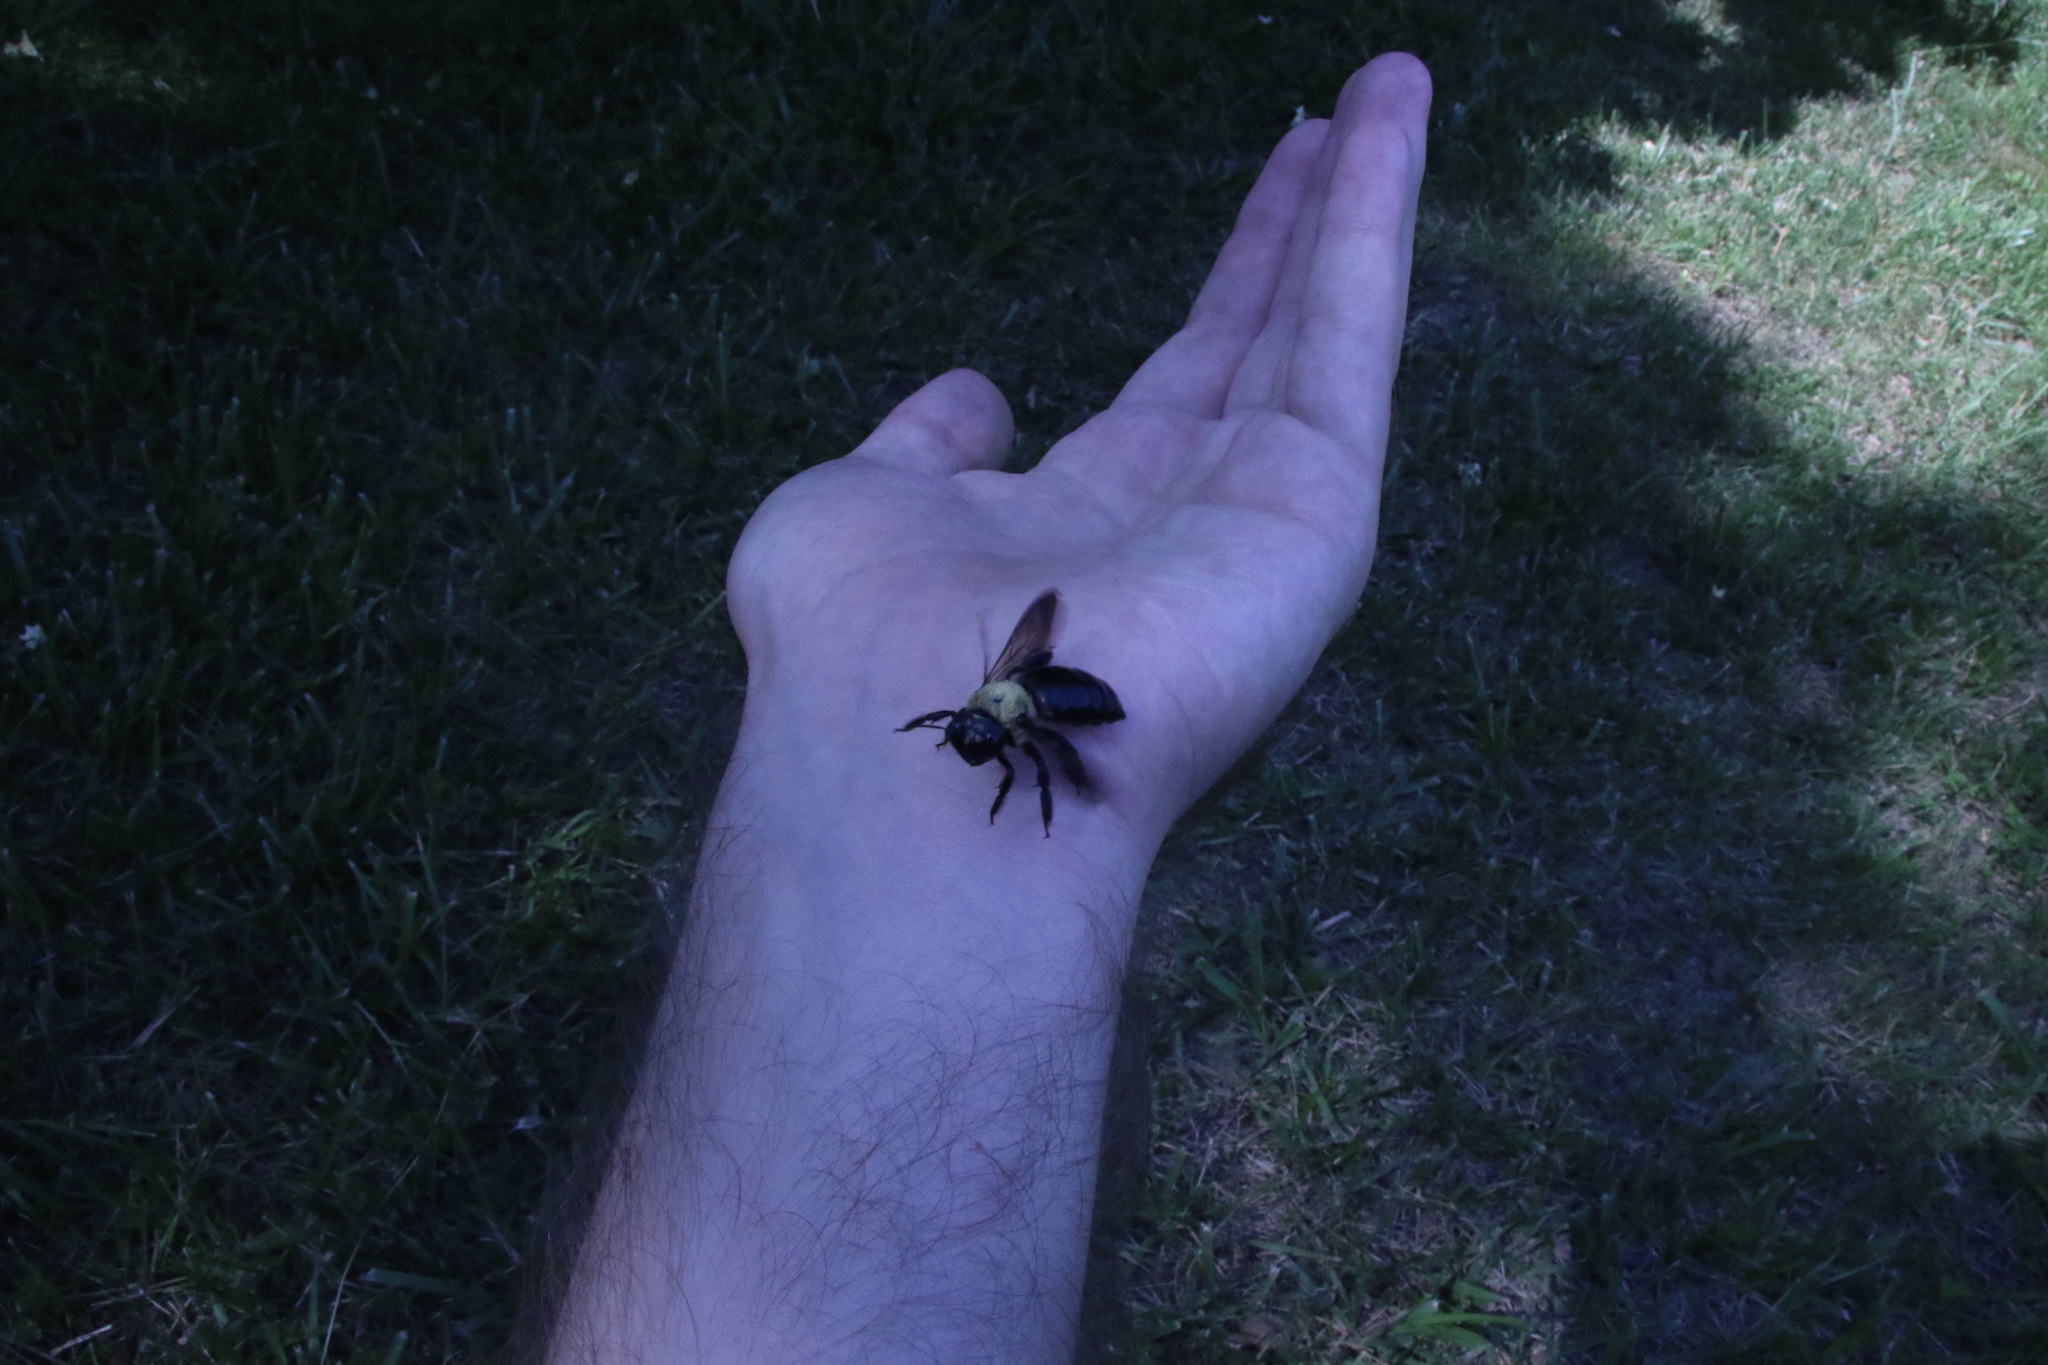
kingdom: Animalia
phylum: Arthropoda
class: Insecta
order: Hymenoptera
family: Apidae
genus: Xylocopa
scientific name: Xylocopa virginica
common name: Carpenter bee
